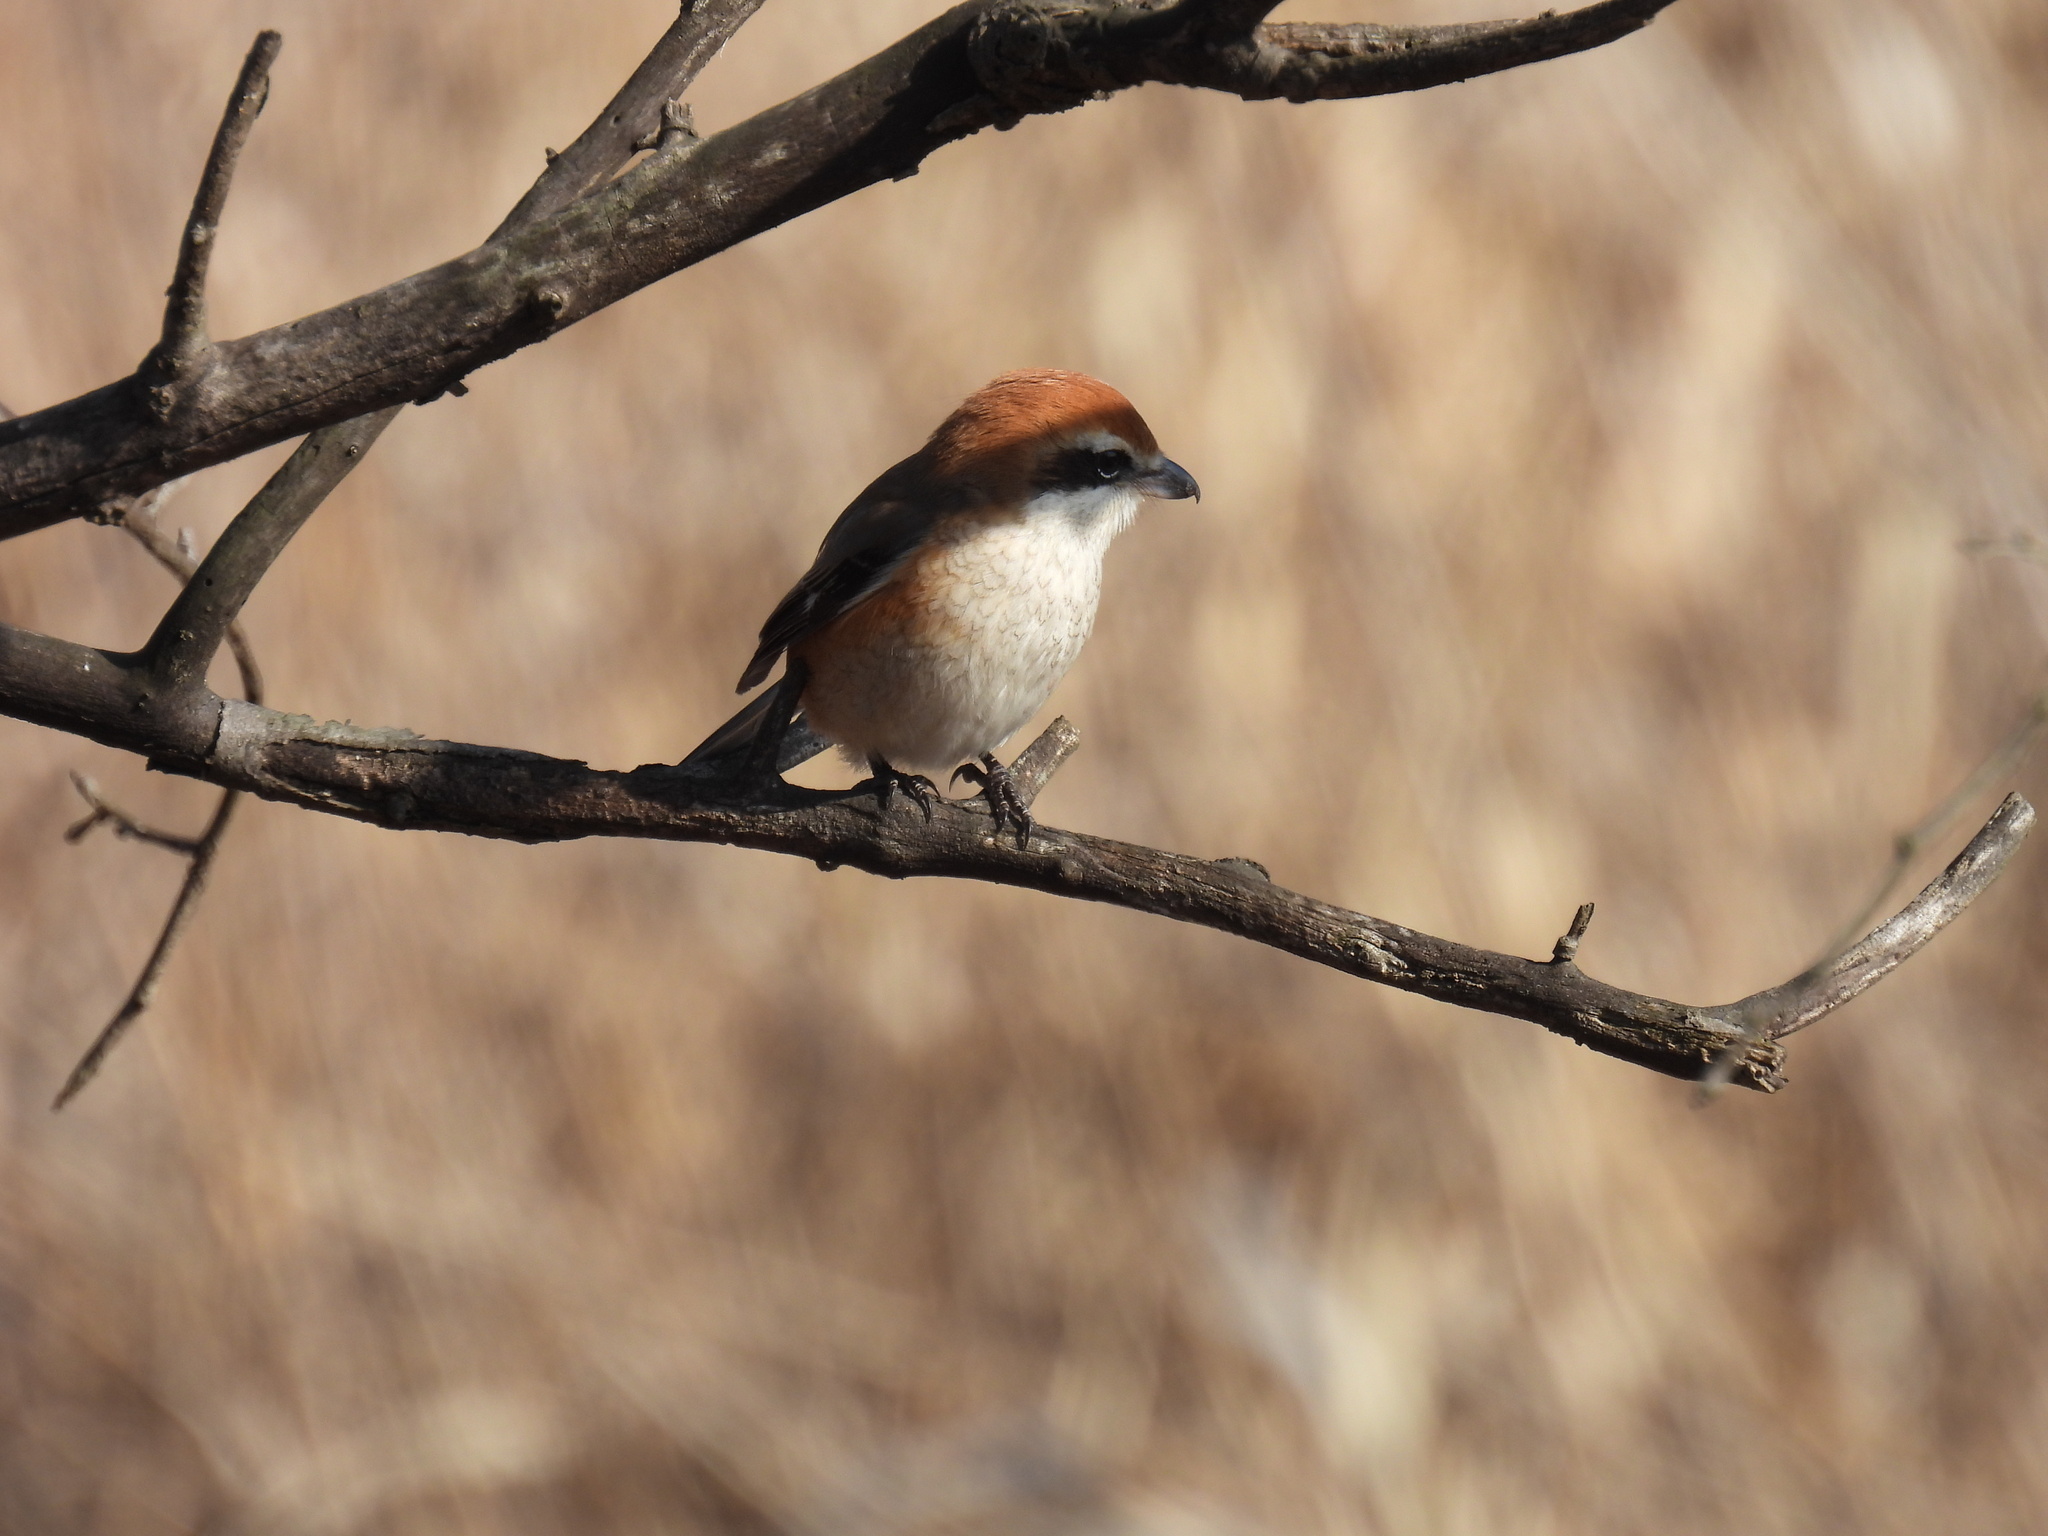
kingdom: Animalia
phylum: Chordata
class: Aves
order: Passeriformes
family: Laniidae
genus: Lanius
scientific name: Lanius bucephalus
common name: Bull-headed shrike
